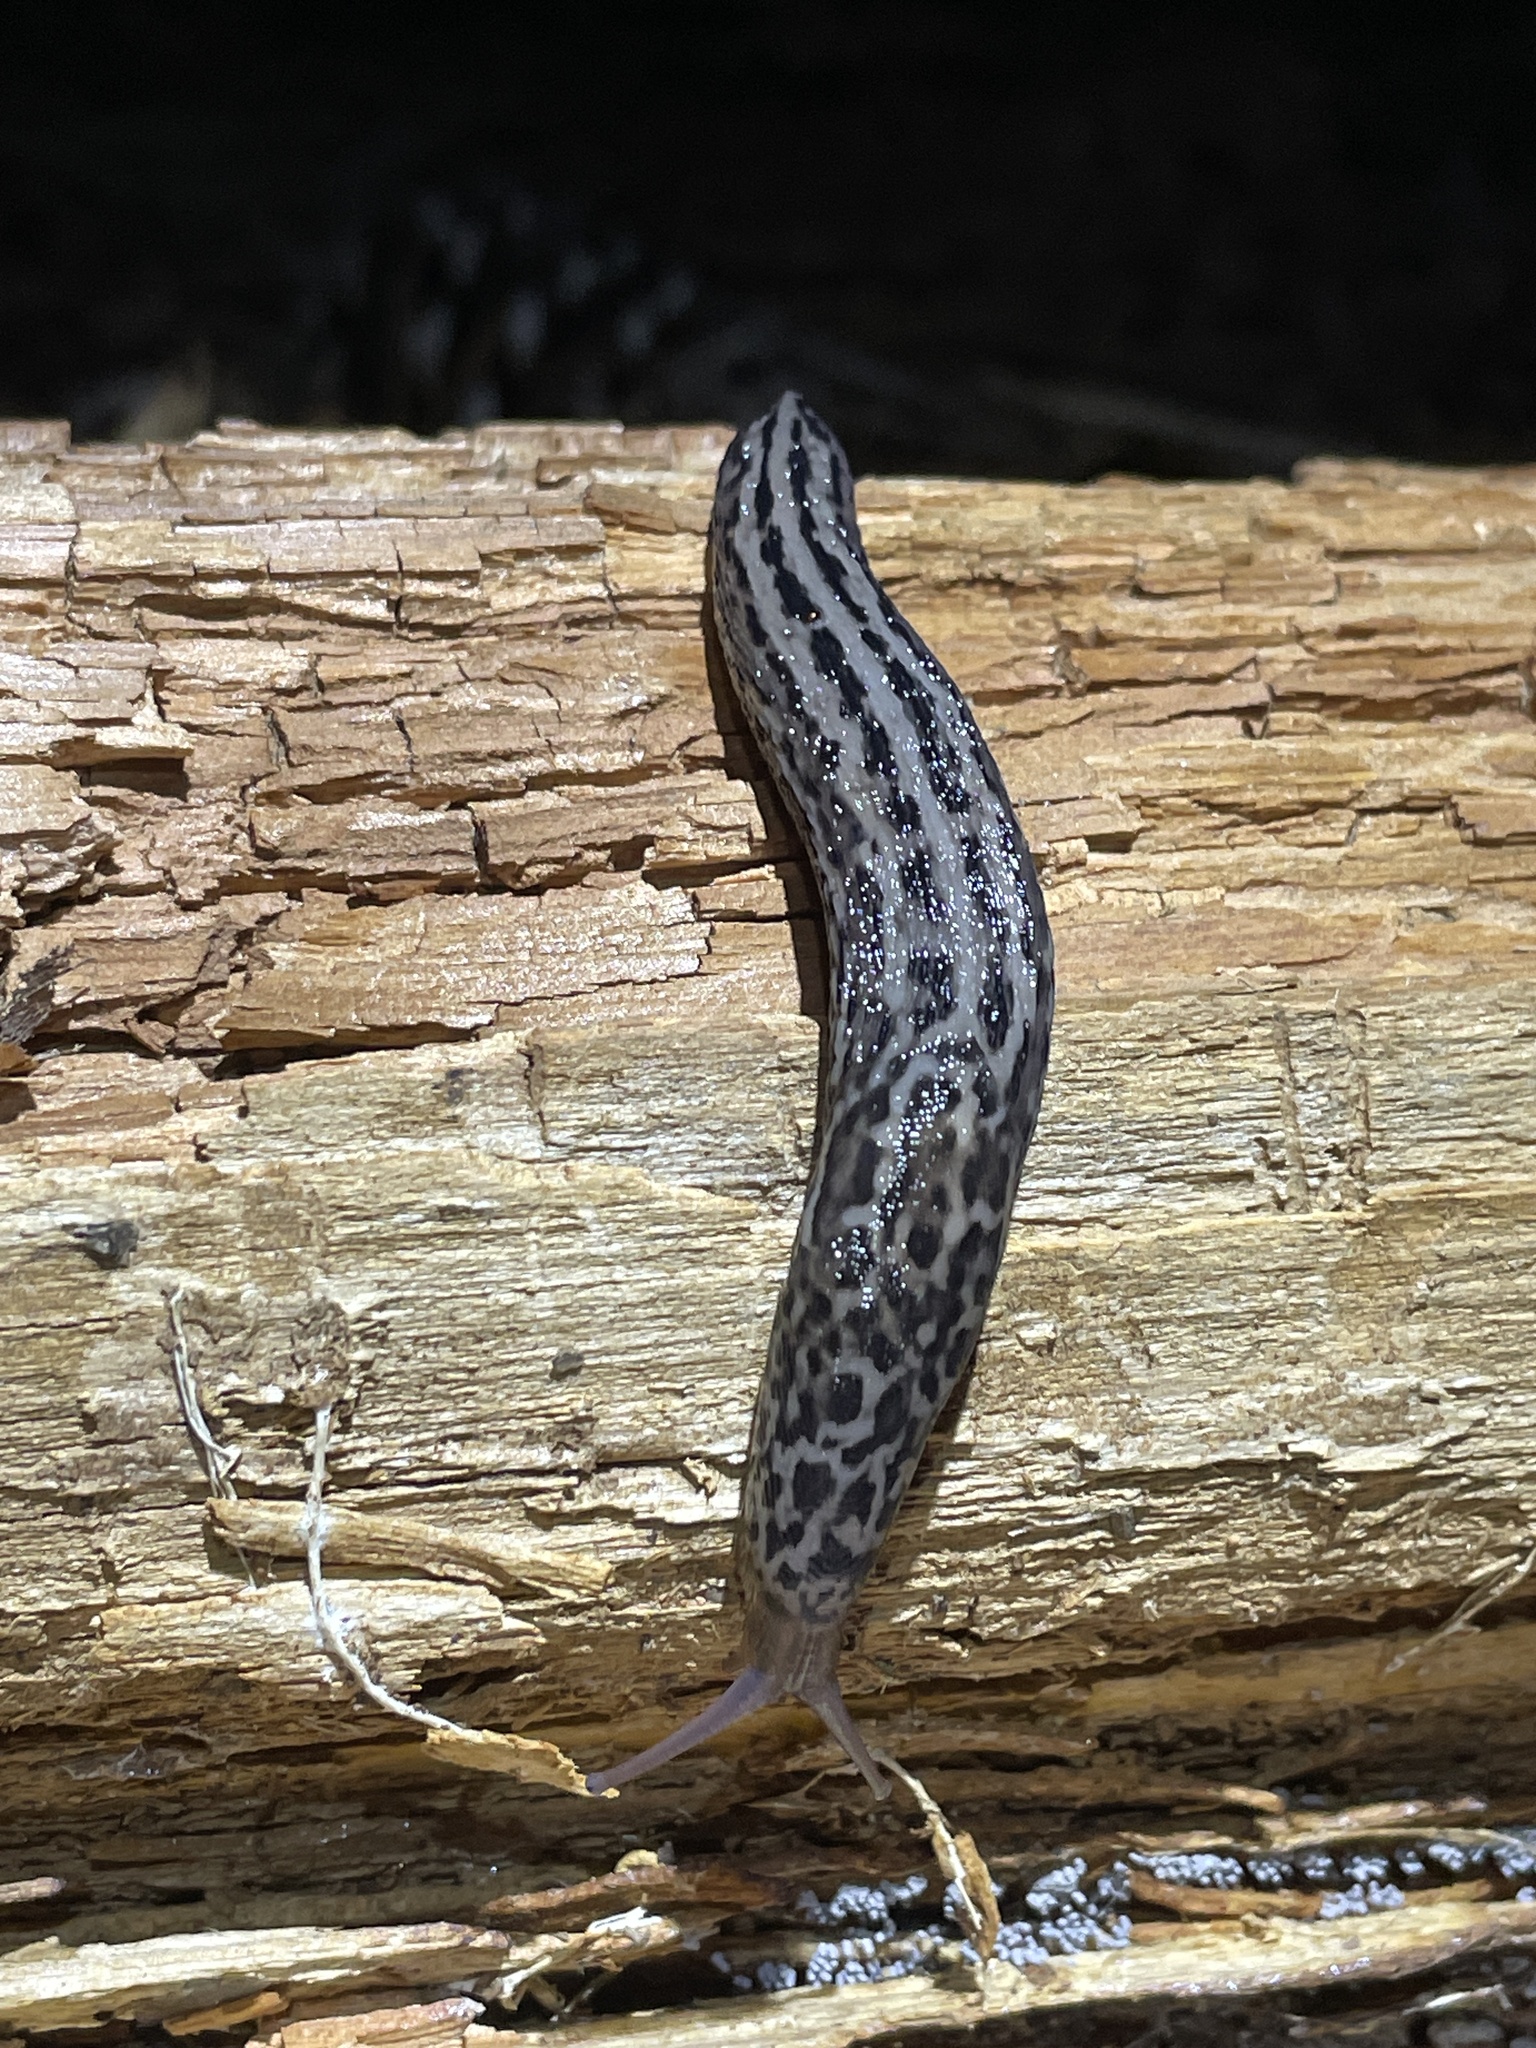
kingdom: Animalia
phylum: Mollusca
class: Gastropoda
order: Stylommatophora
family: Limacidae
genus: Limax
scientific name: Limax maximus
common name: Great grey slug
